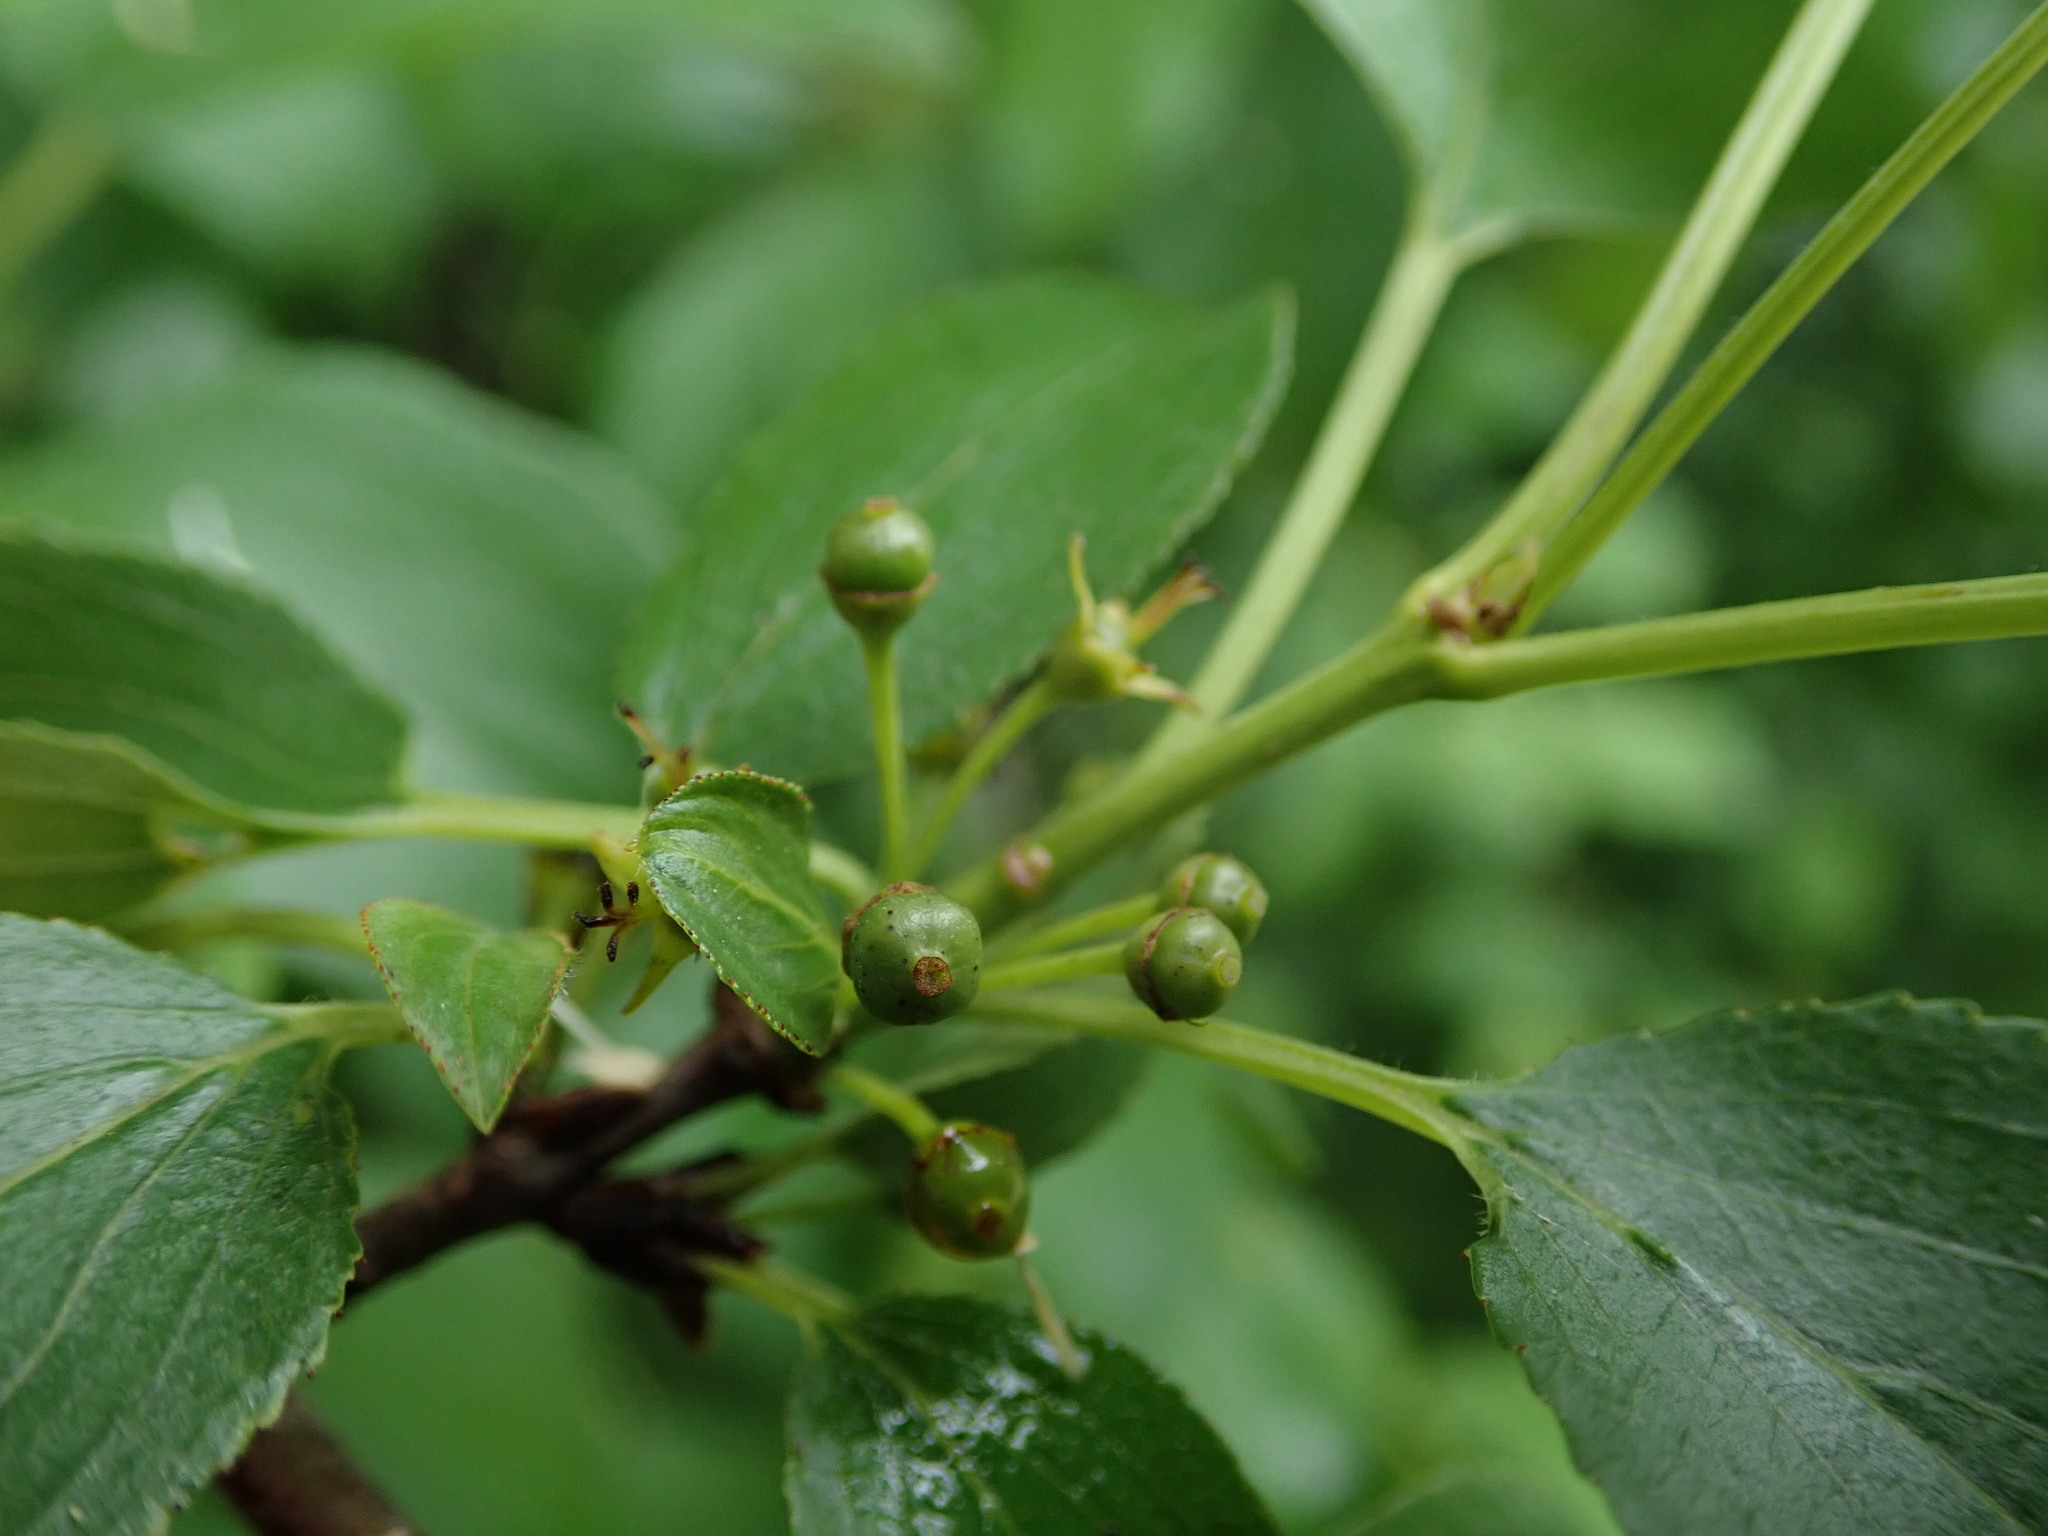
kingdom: Plantae
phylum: Tracheophyta
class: Magnoliopsida
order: Rosales
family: Rhamnaceae
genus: Rhamnus
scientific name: Rhamnus cathartica
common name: Common buckthorn
